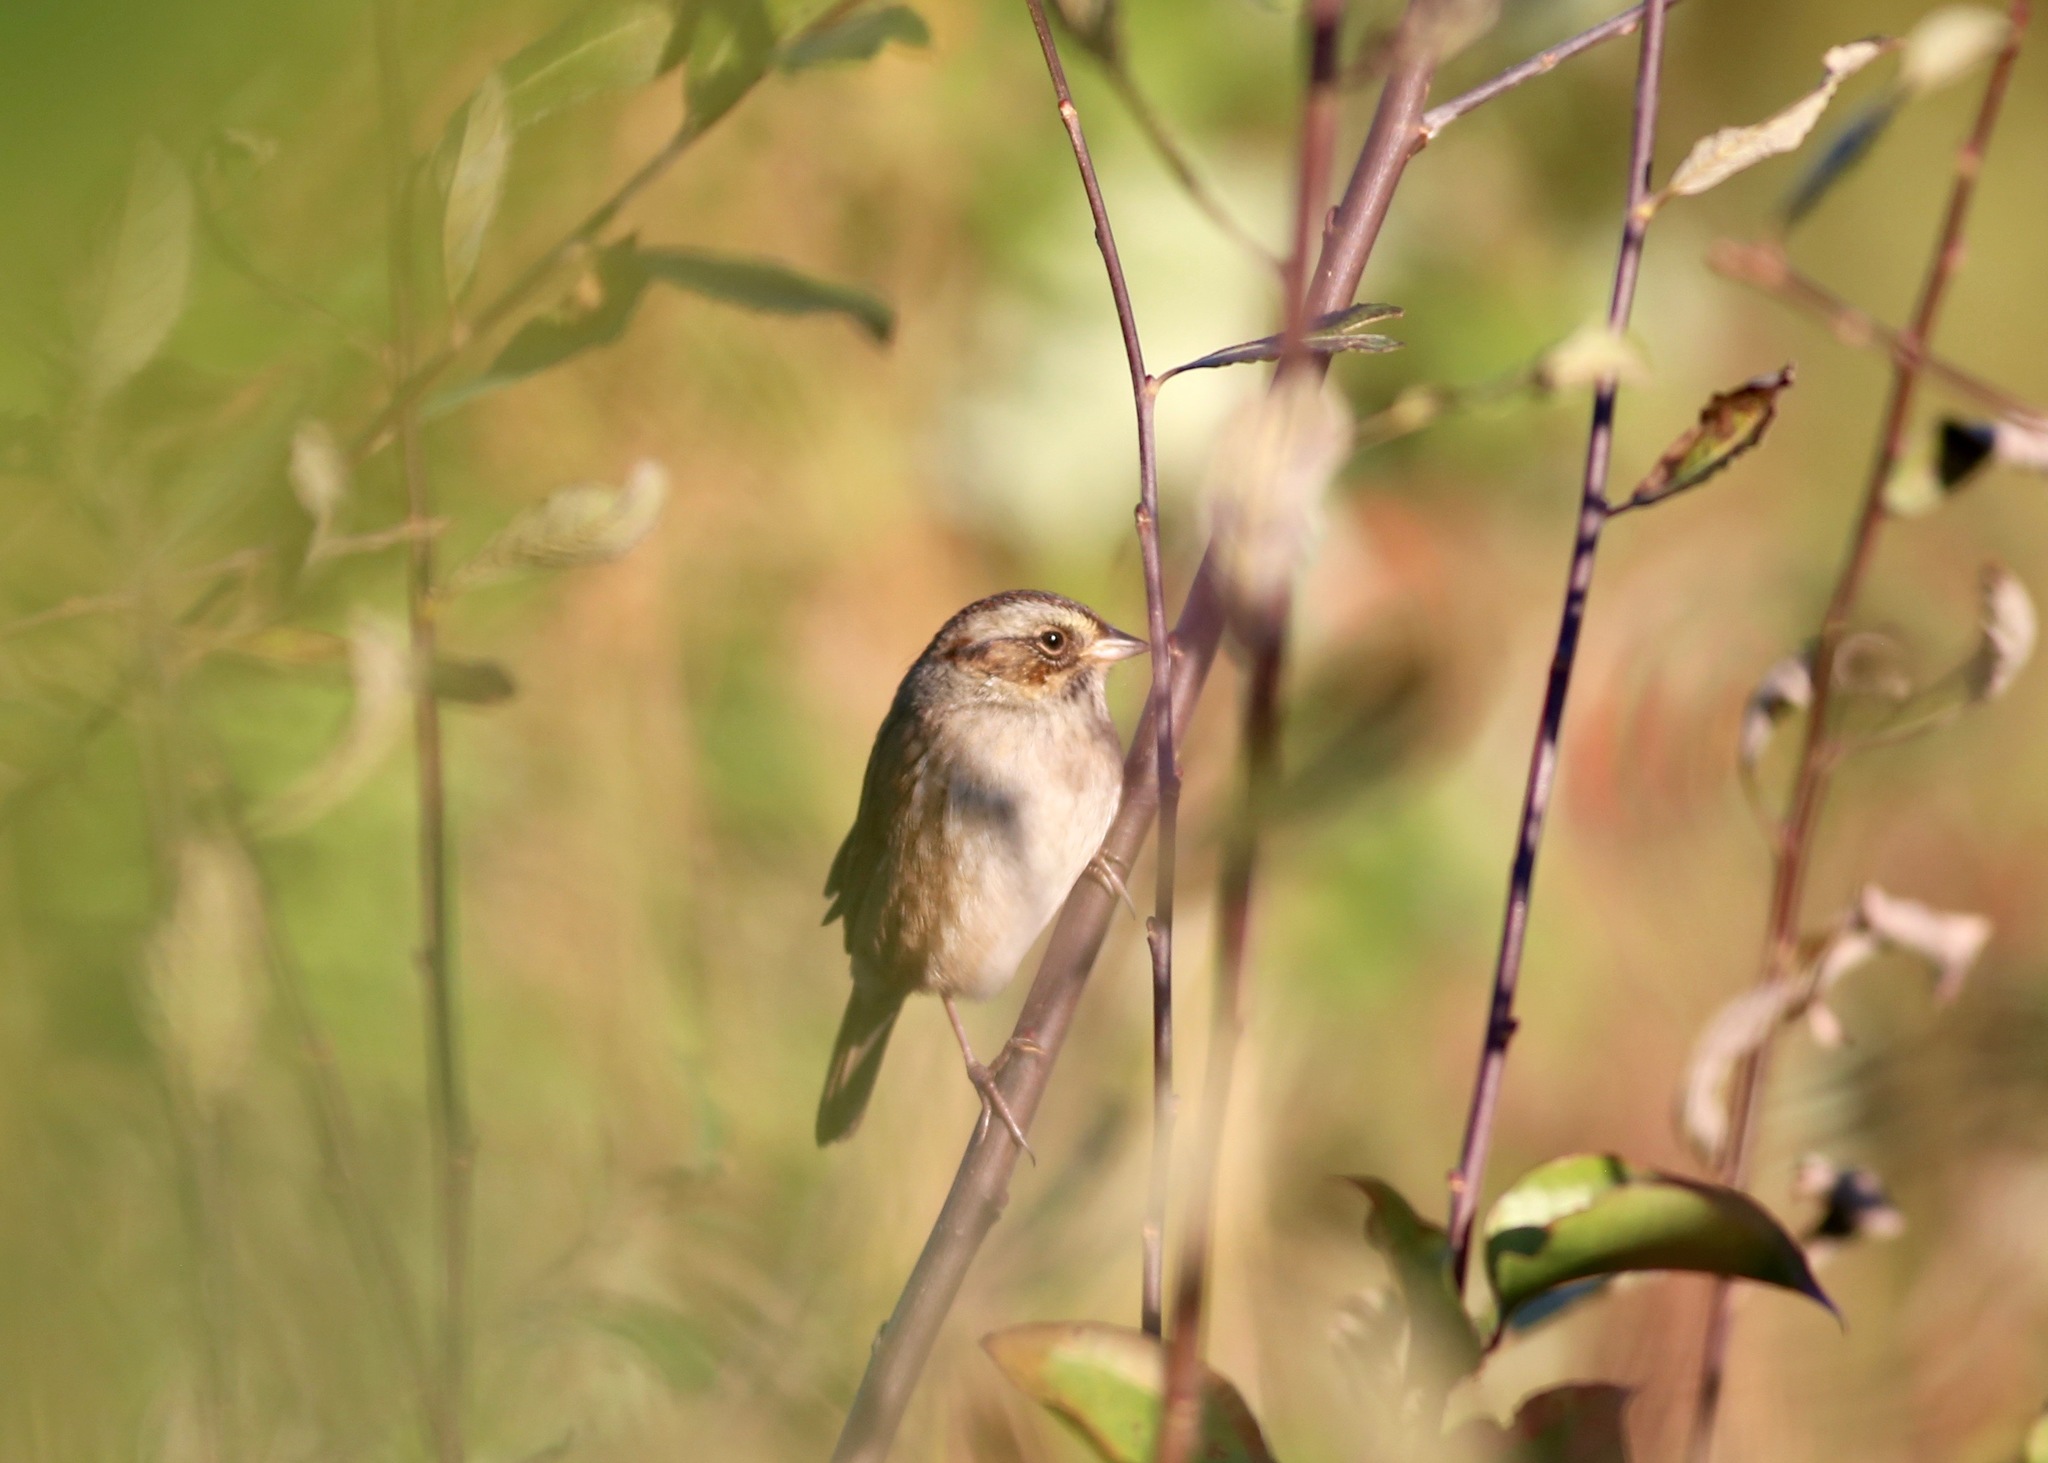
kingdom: Animalia
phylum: Chordata
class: Aves
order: Passeriformes
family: Passerellidae
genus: Melospiza
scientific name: Melospiza georgiana
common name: Swamp sparrow
